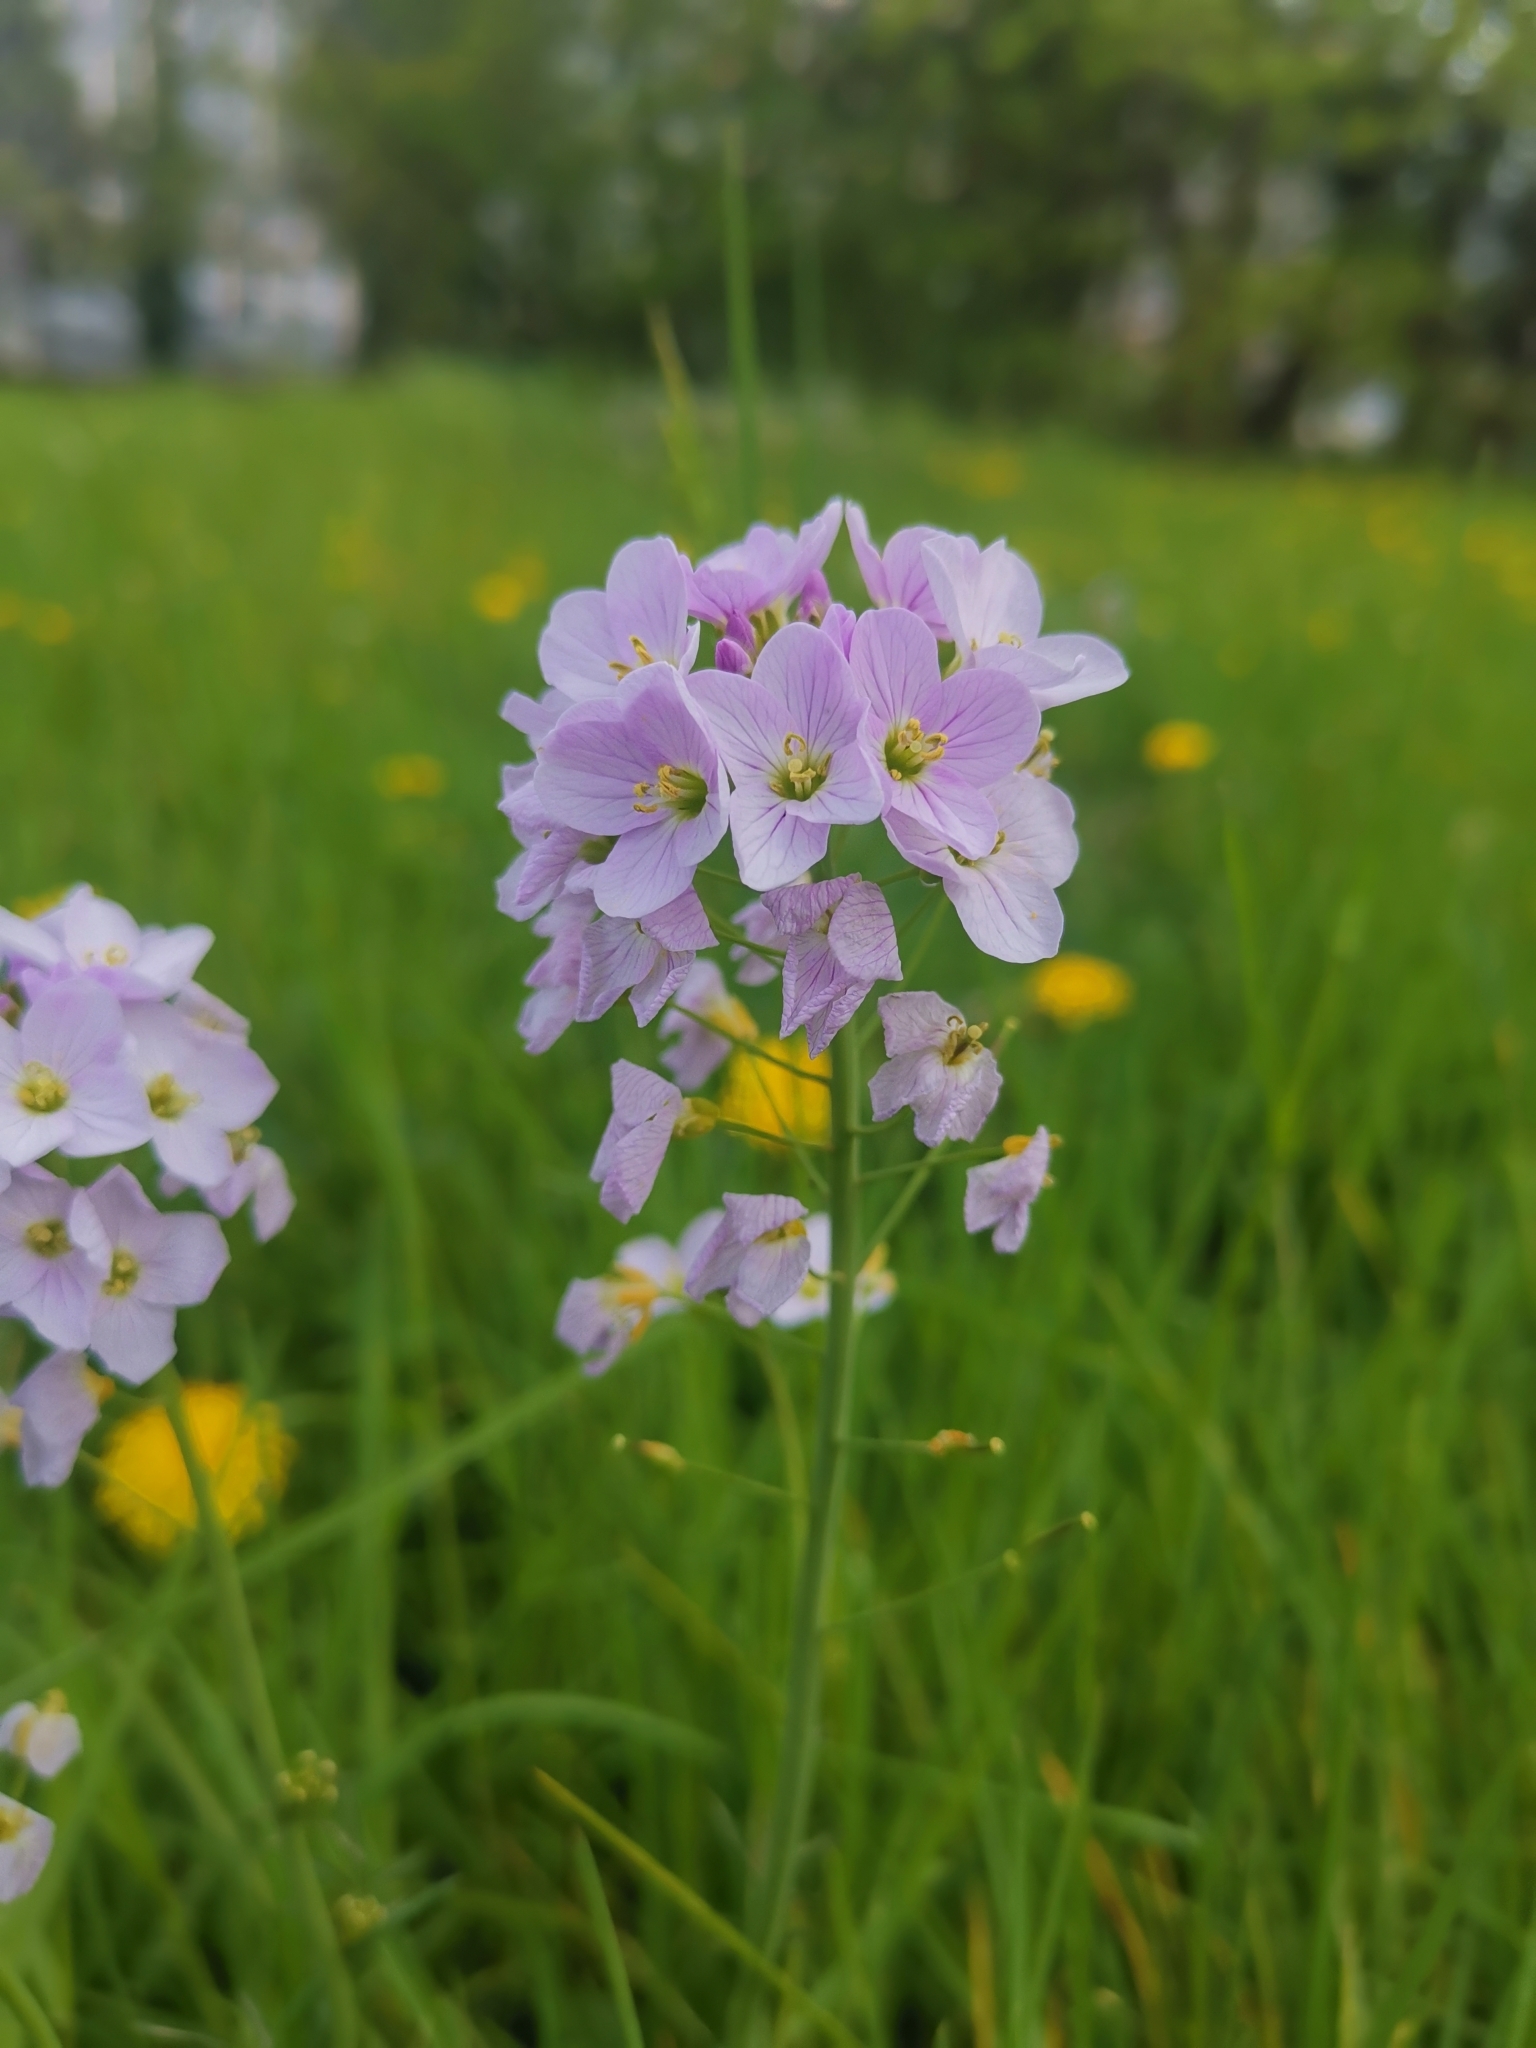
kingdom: Plantae
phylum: Tracheophyta
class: Magnoliopsida
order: Brassicales
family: Brassicaceae
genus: Cardamine
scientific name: Cardamine pratensis
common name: Cuckoo flower
